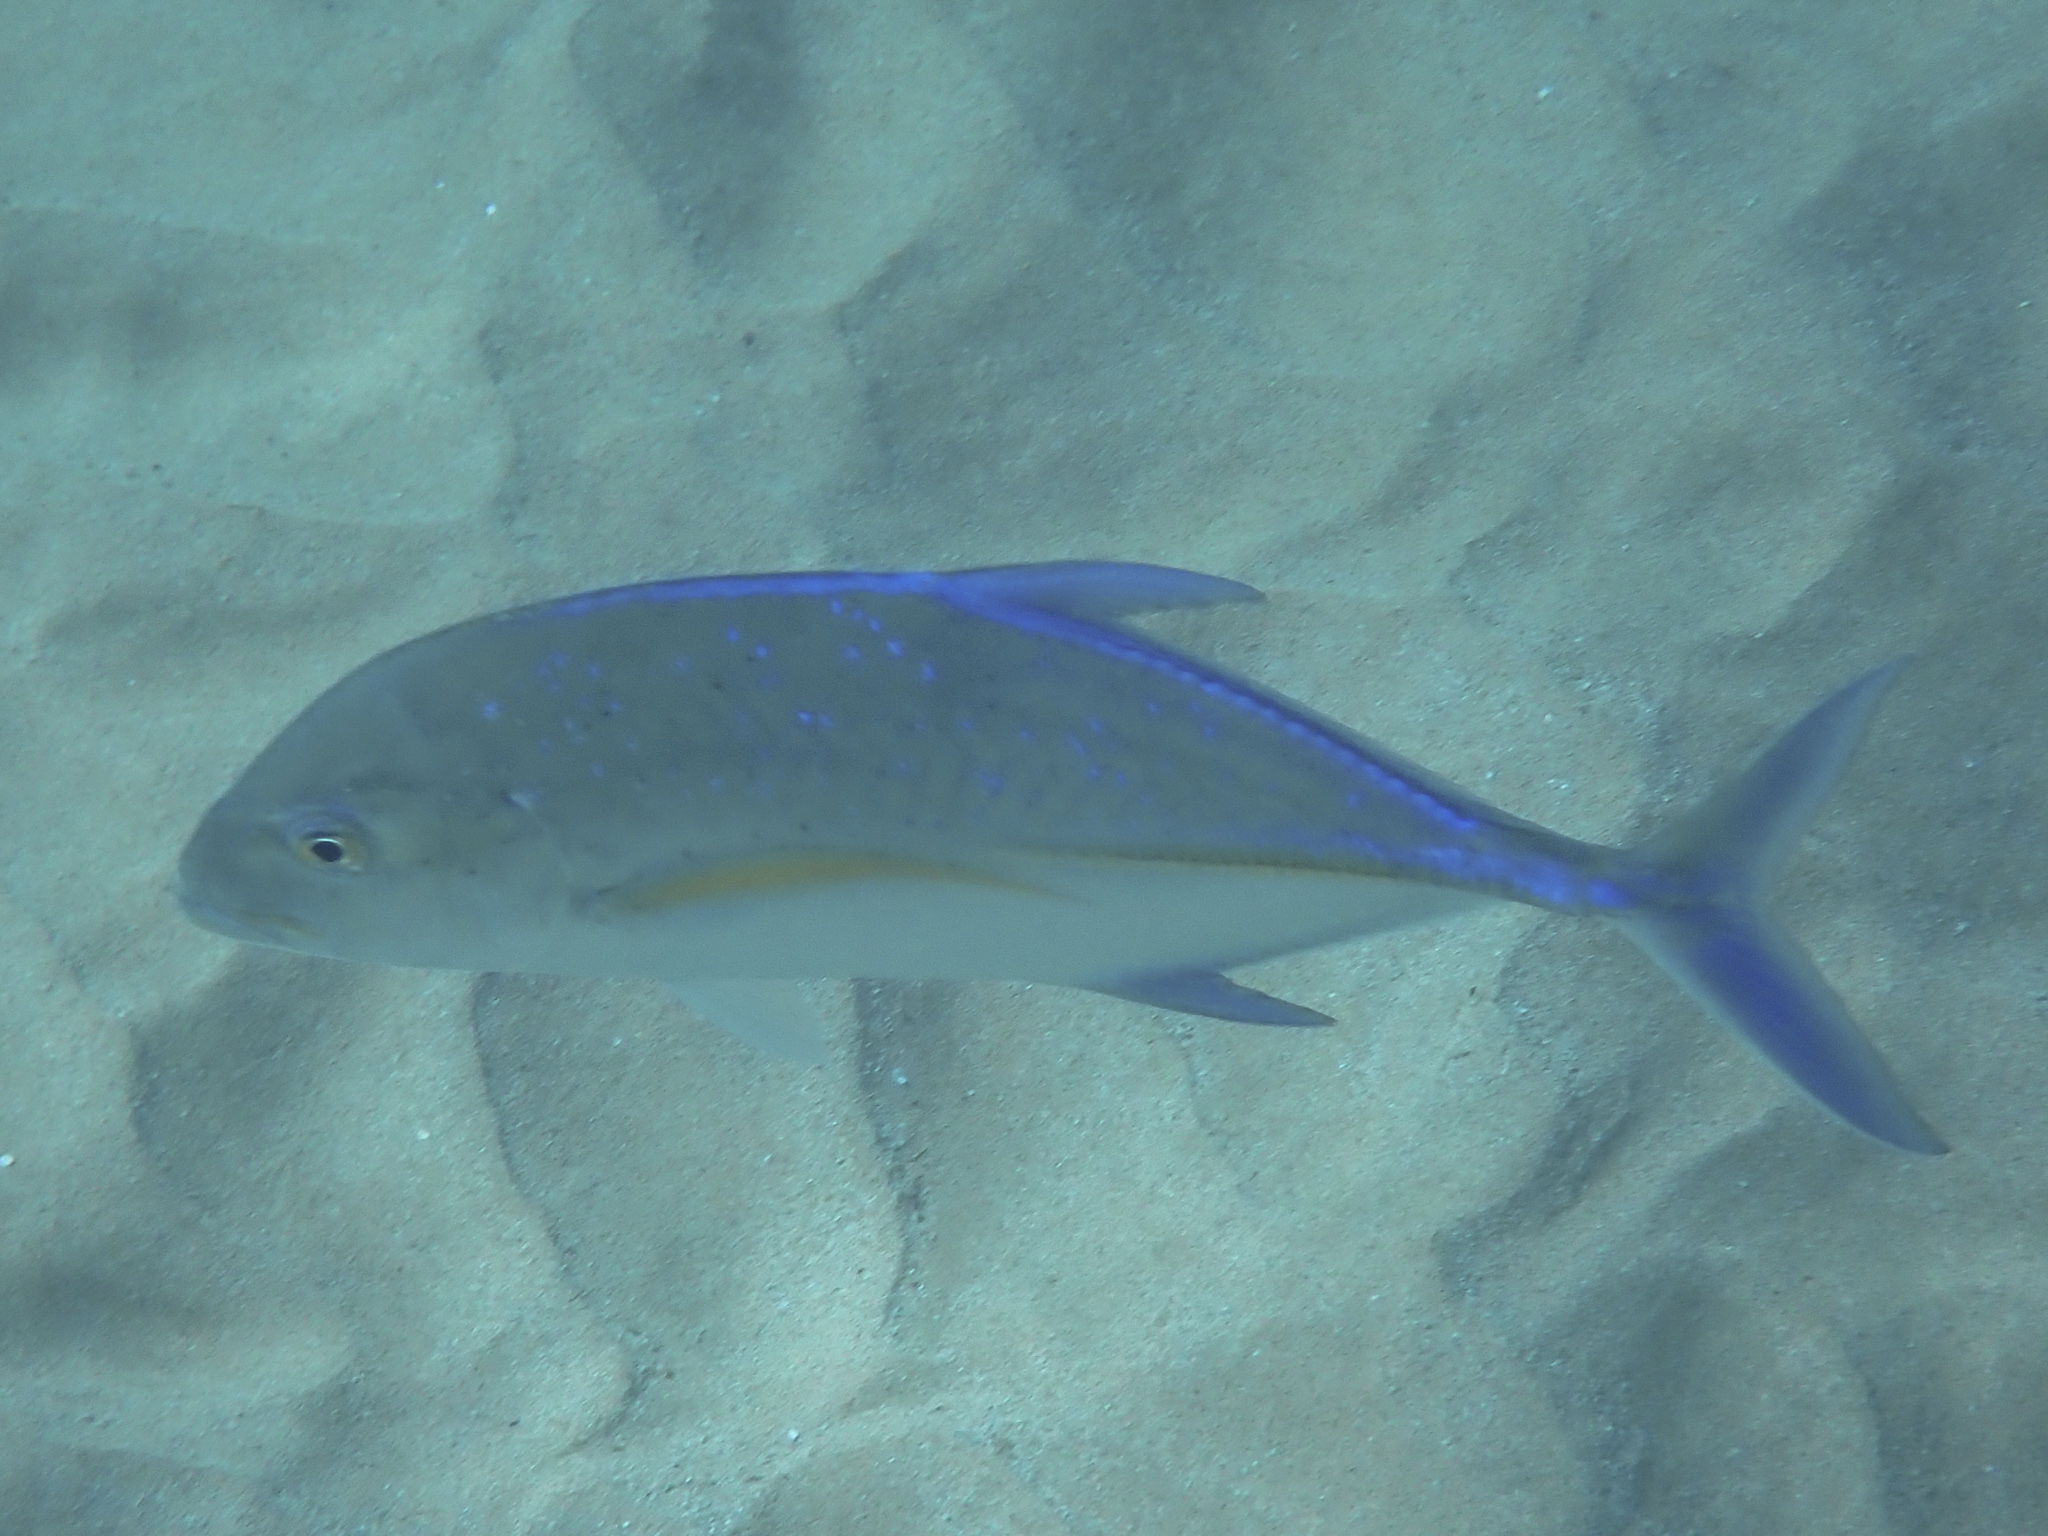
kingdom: Animalia
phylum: Chordata
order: Perciformes
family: Carangidae
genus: Caranx
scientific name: Caranx melampygus
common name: Bluefin trevally
